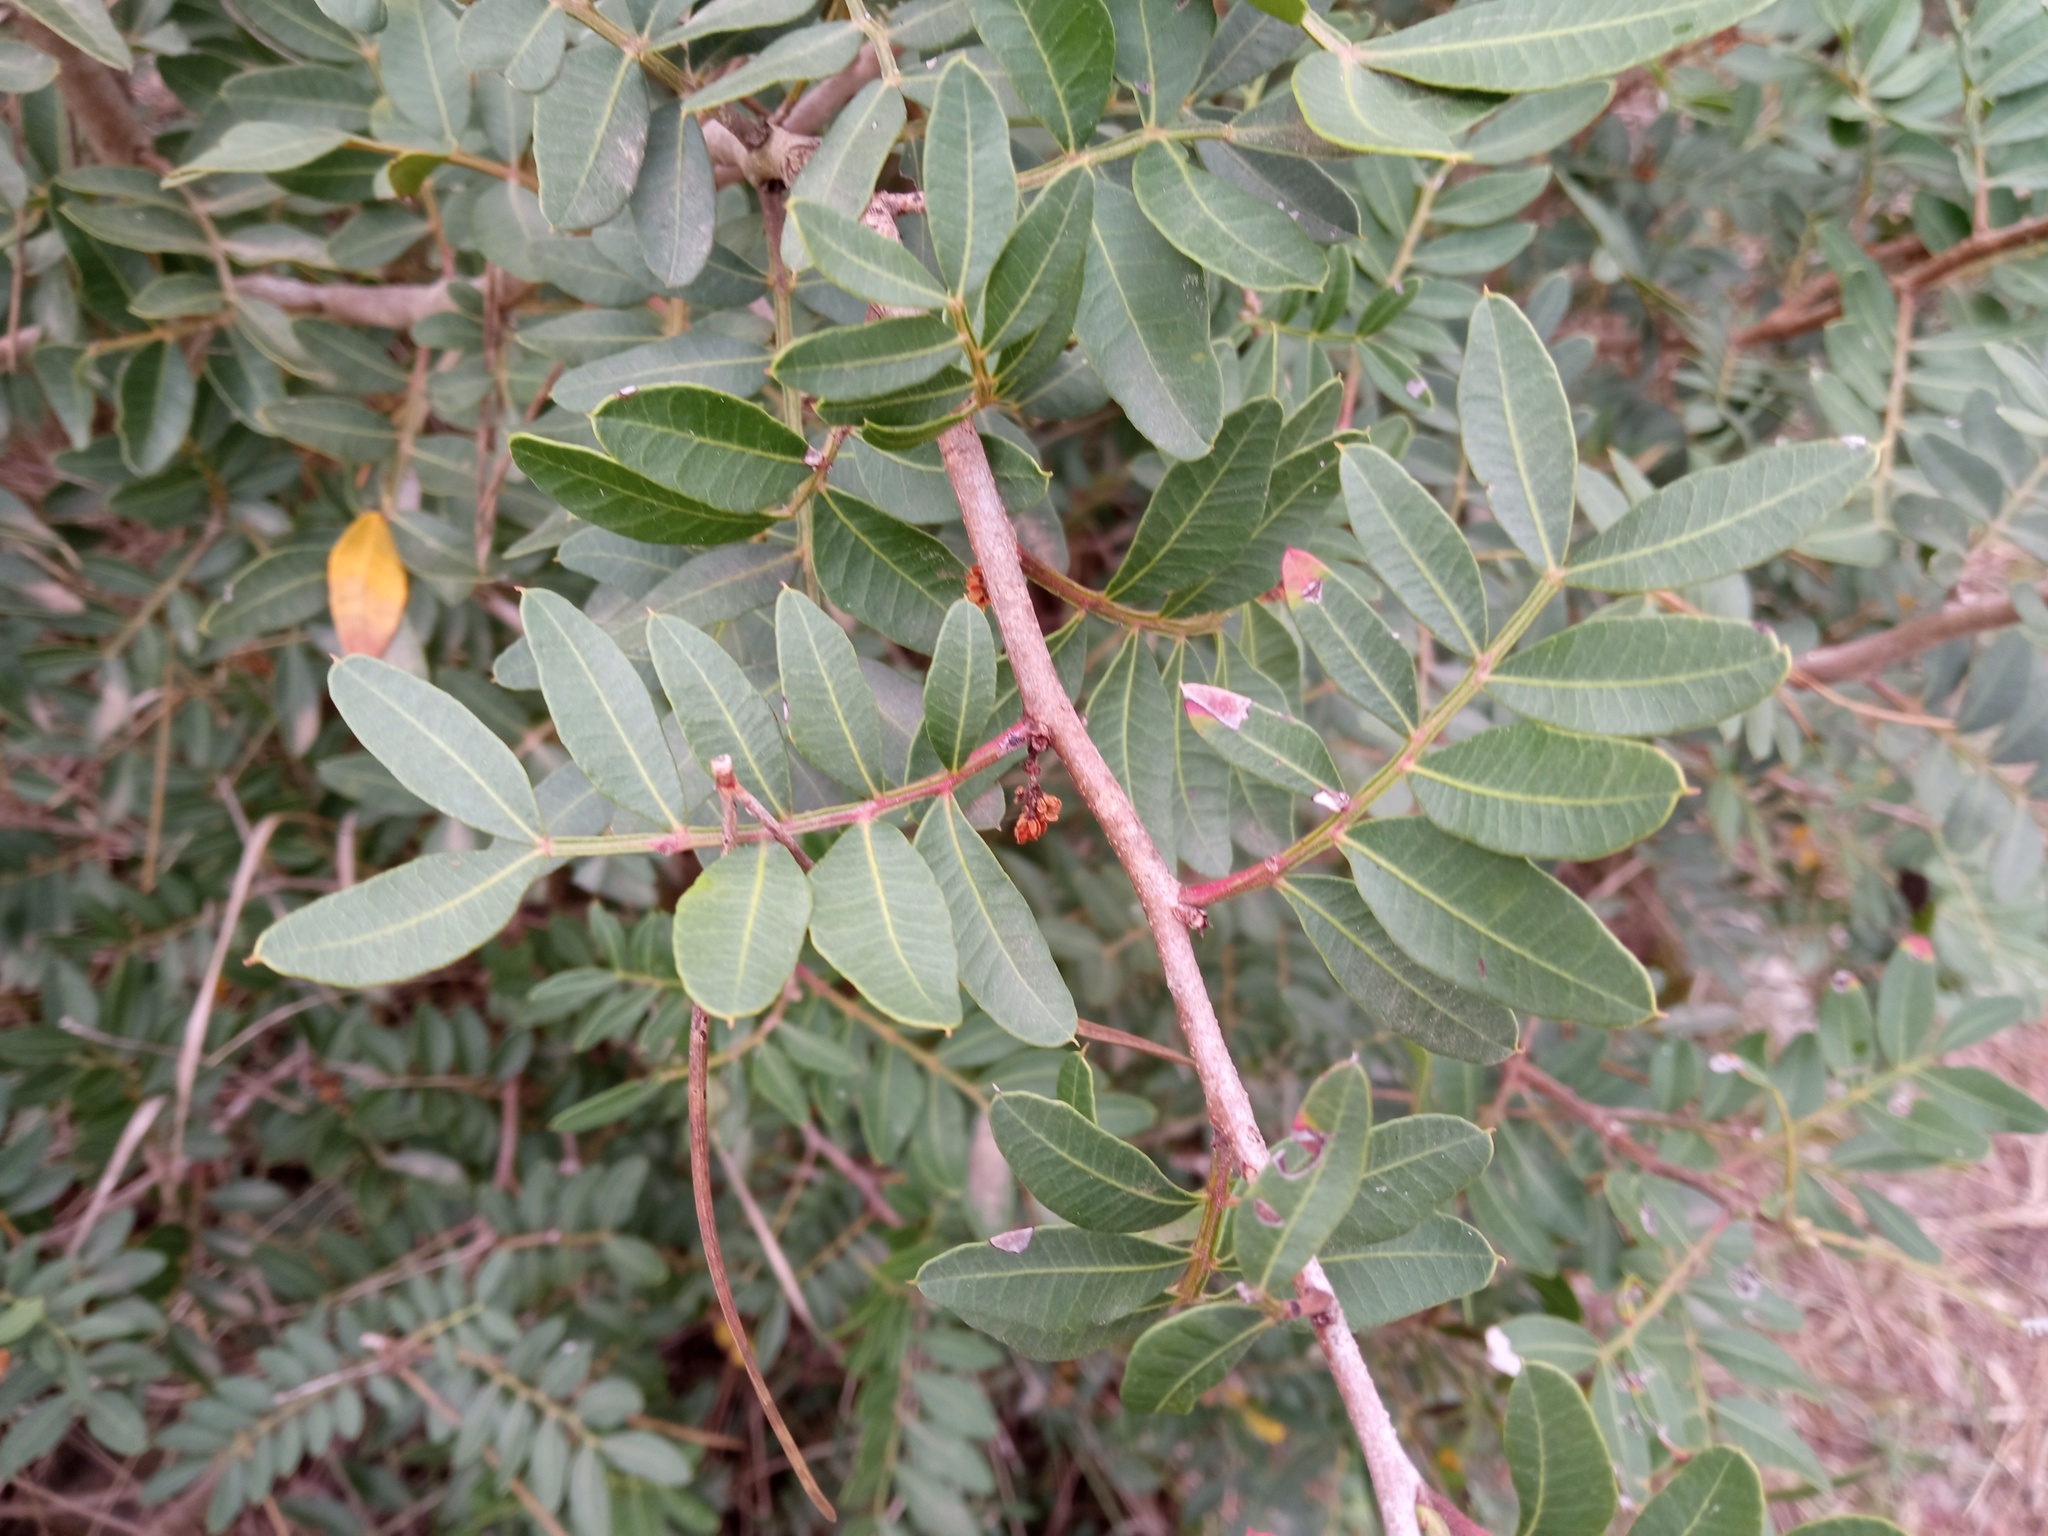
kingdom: Plantae
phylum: Tracheophyta
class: Magnoliopsida
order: Sapindales
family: Anacardiaceae
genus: Pistacia
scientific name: Pistacia lentiscus
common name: Lentisk
